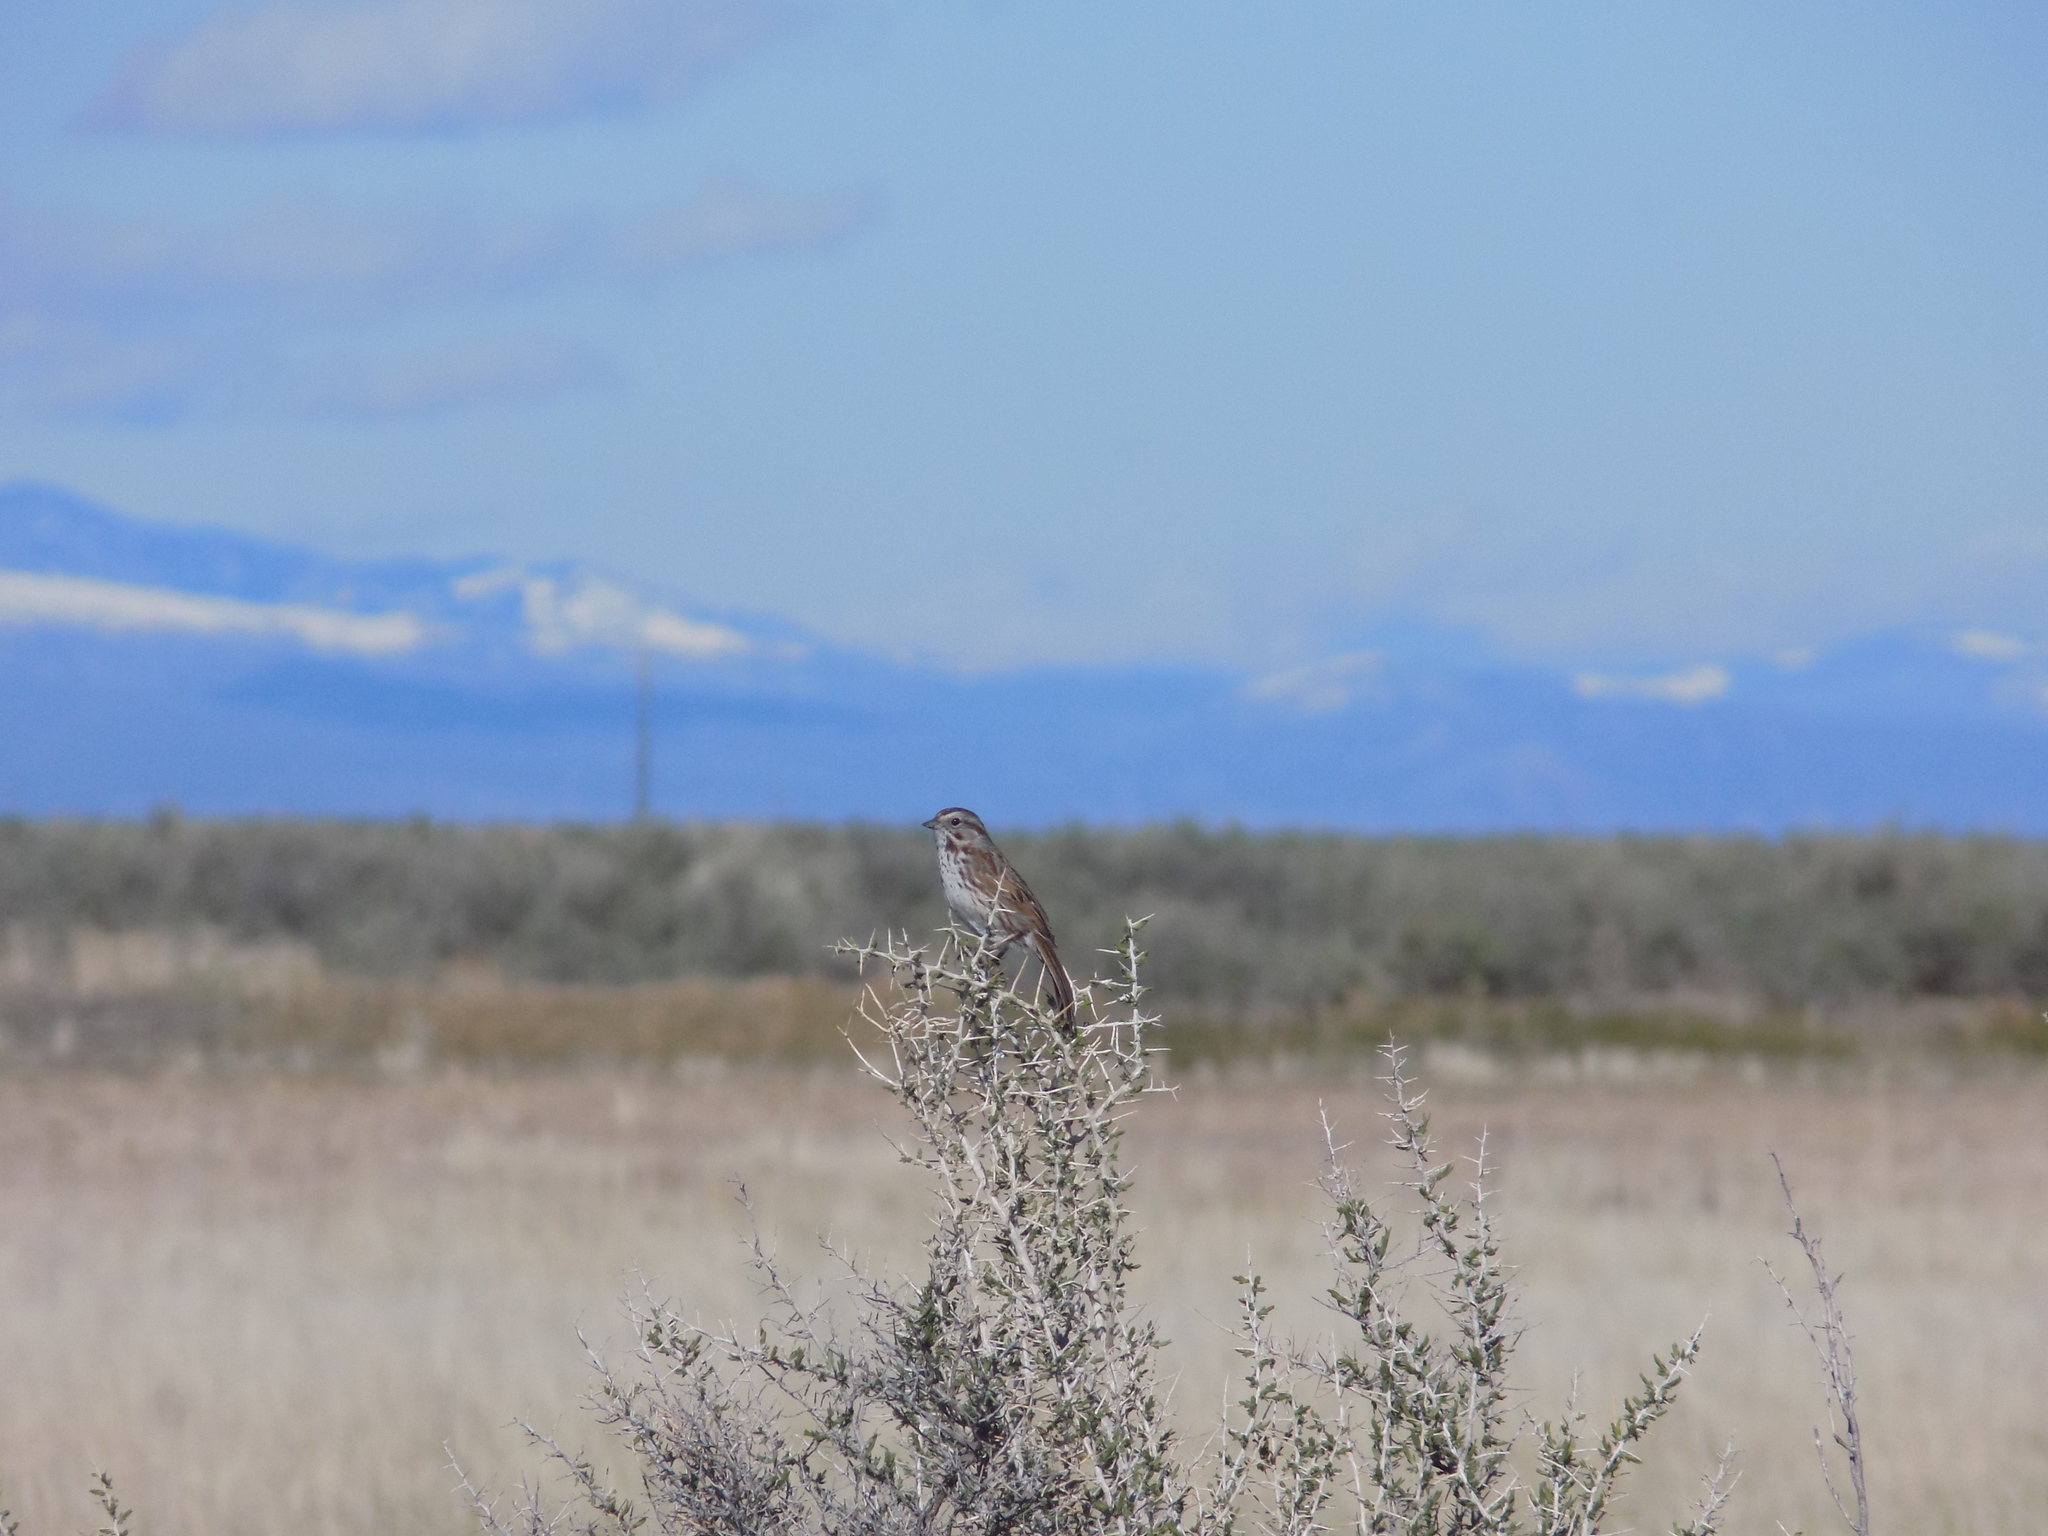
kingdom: Animalia
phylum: Chordata
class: Aves
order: Passeriformes
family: Passerellidae
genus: Melospiza
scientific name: Melospiza melodia
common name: Song sparrow
